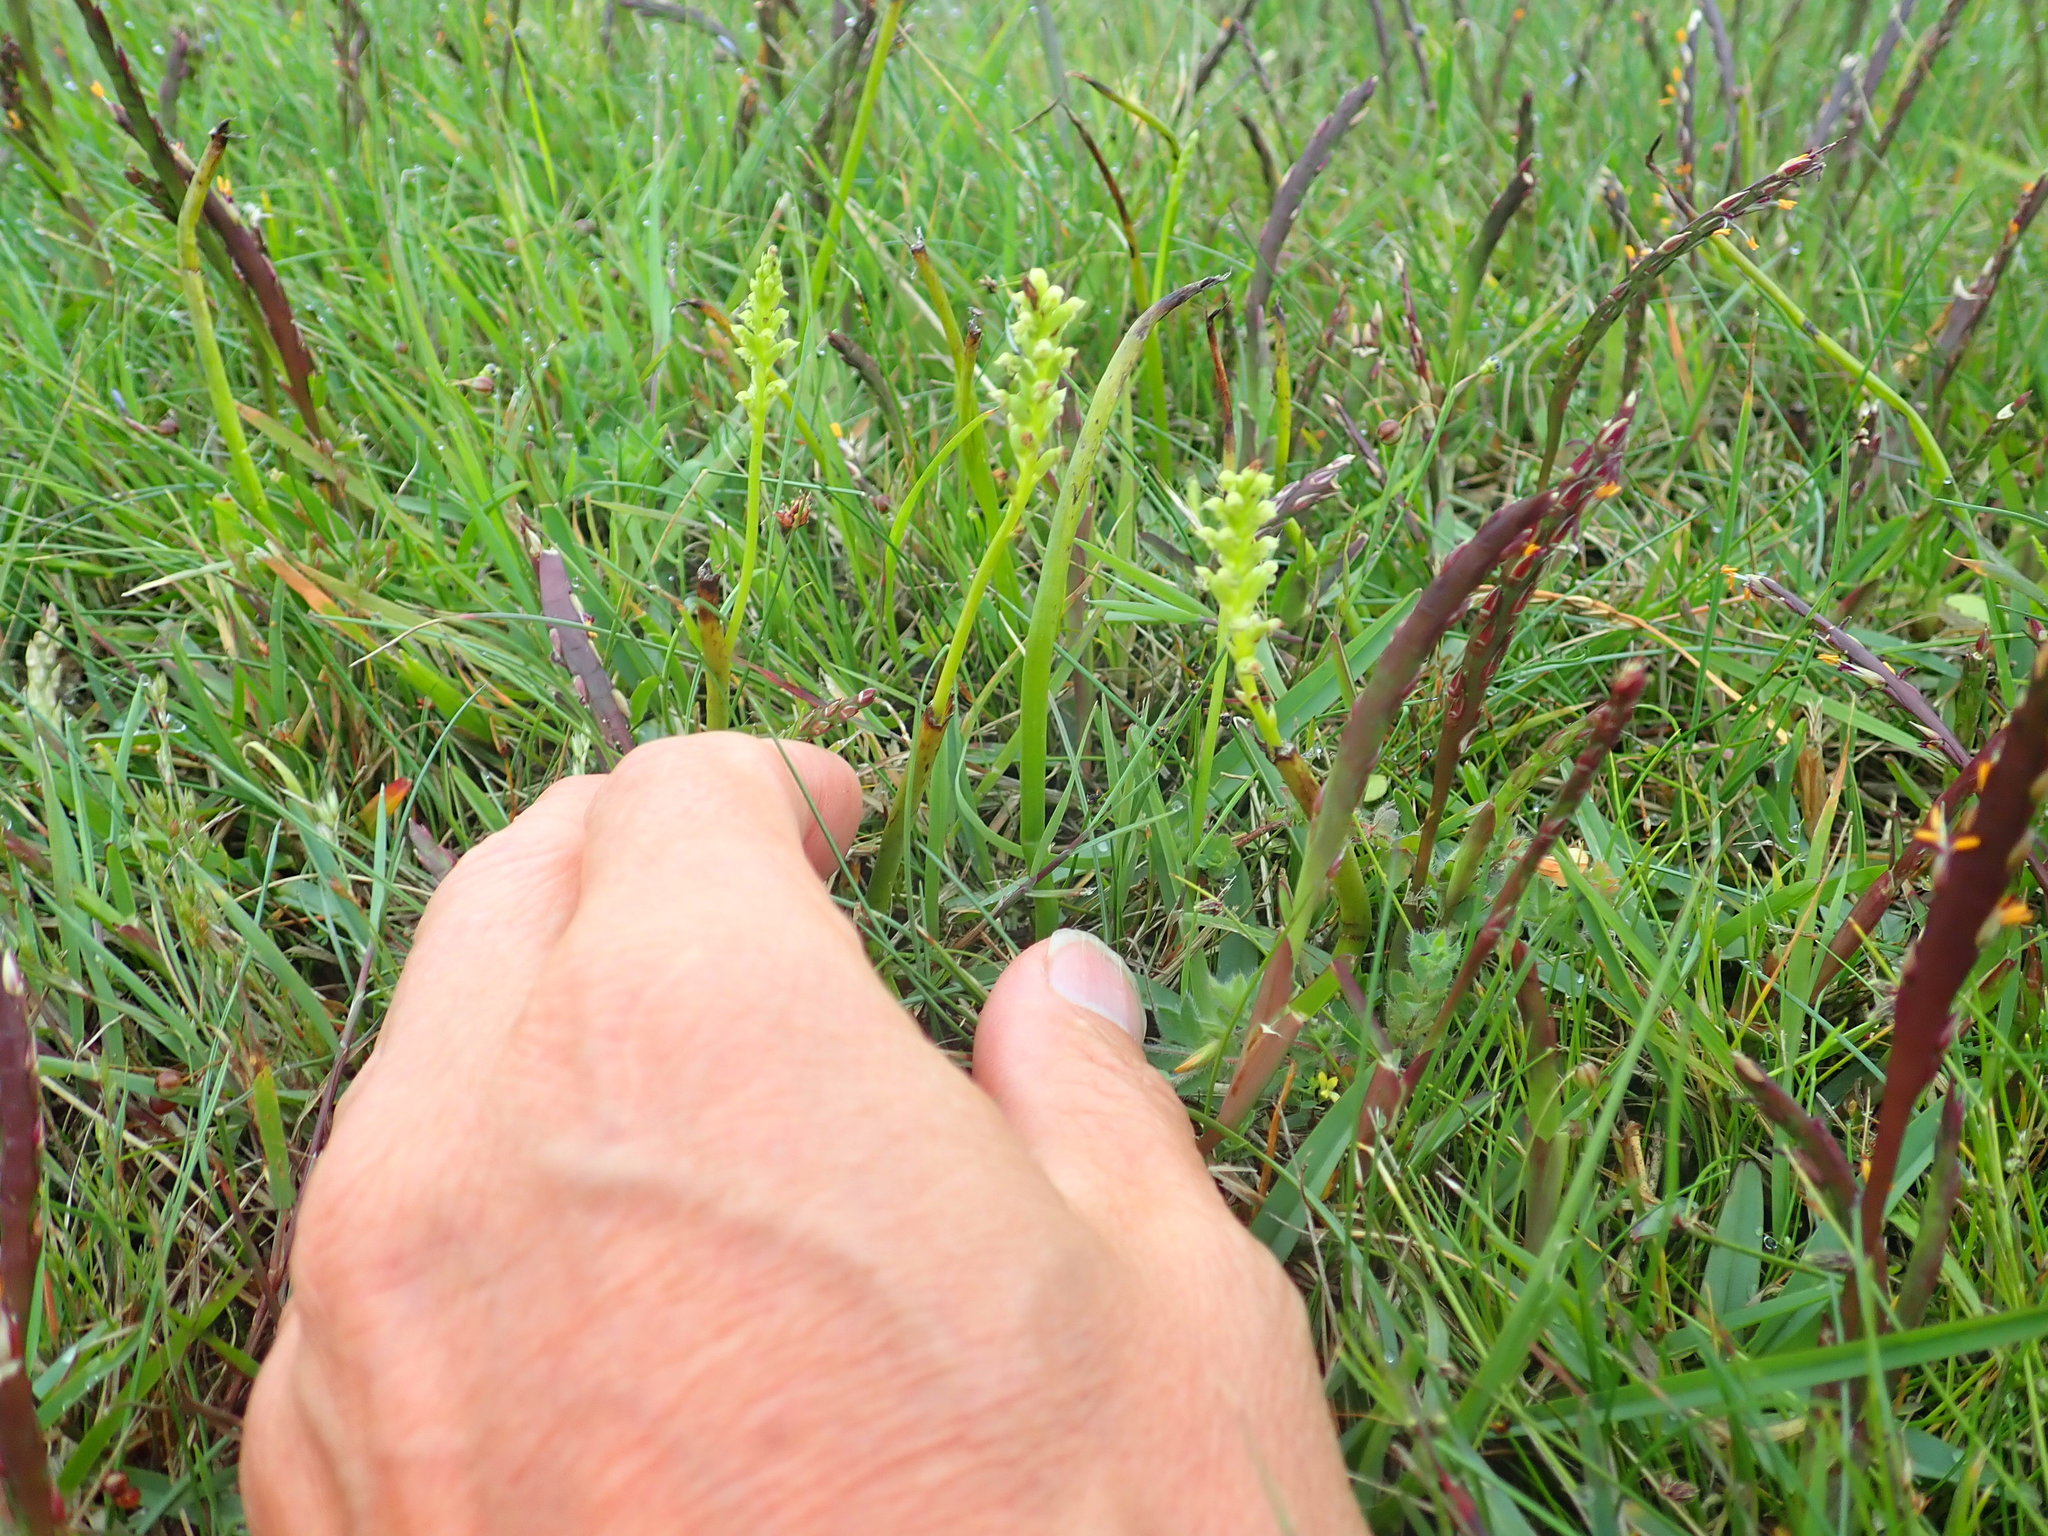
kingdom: Plantae
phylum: Tracheophyta
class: Liliopsida
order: Asparagales
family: Orchidaceae
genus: Microtis
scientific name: Microtis unifolia
